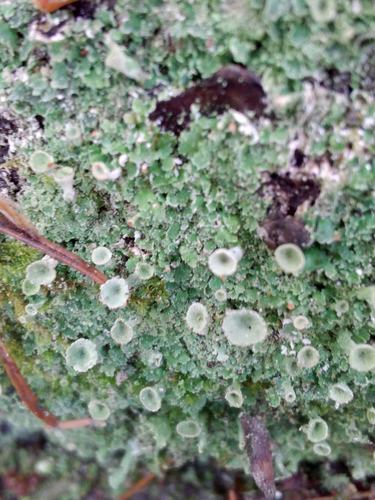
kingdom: Fungi
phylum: Ascomycota
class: Lecanoromycetes
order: Lecanorales
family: Cladoniaceae
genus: Cladonia
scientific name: Cladonia
